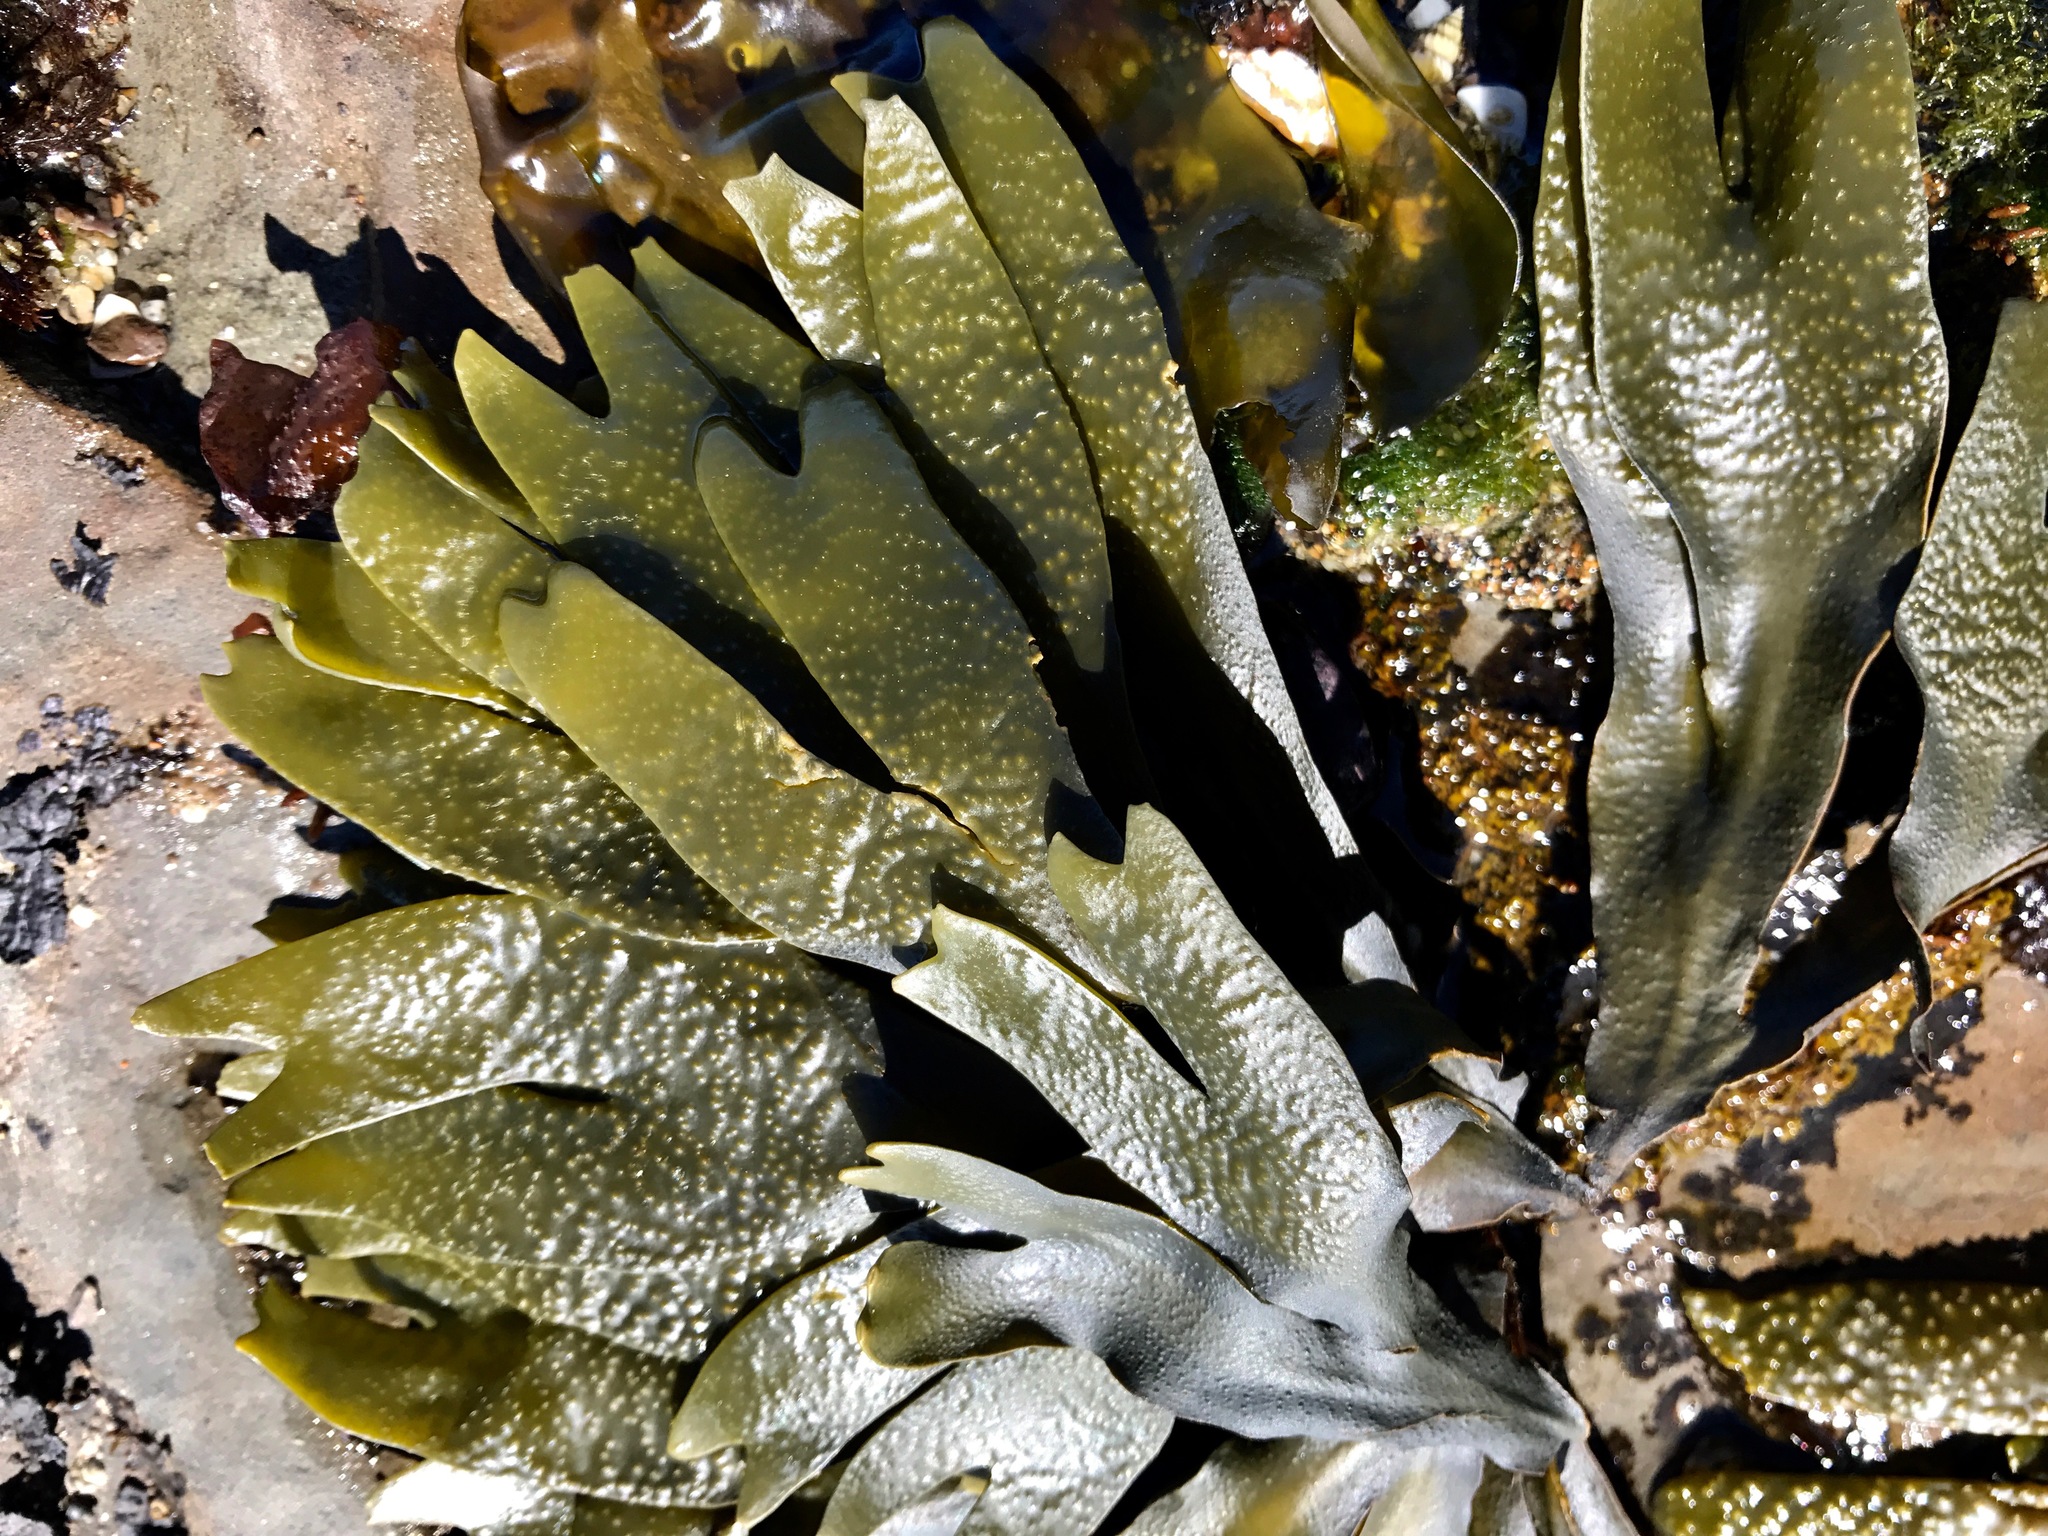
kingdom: Chromista
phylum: Ochrophyta
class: Phaeophyceae
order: Fucales
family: Fucaceae
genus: Fucus
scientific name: Fucus distichus
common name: Rockweed
